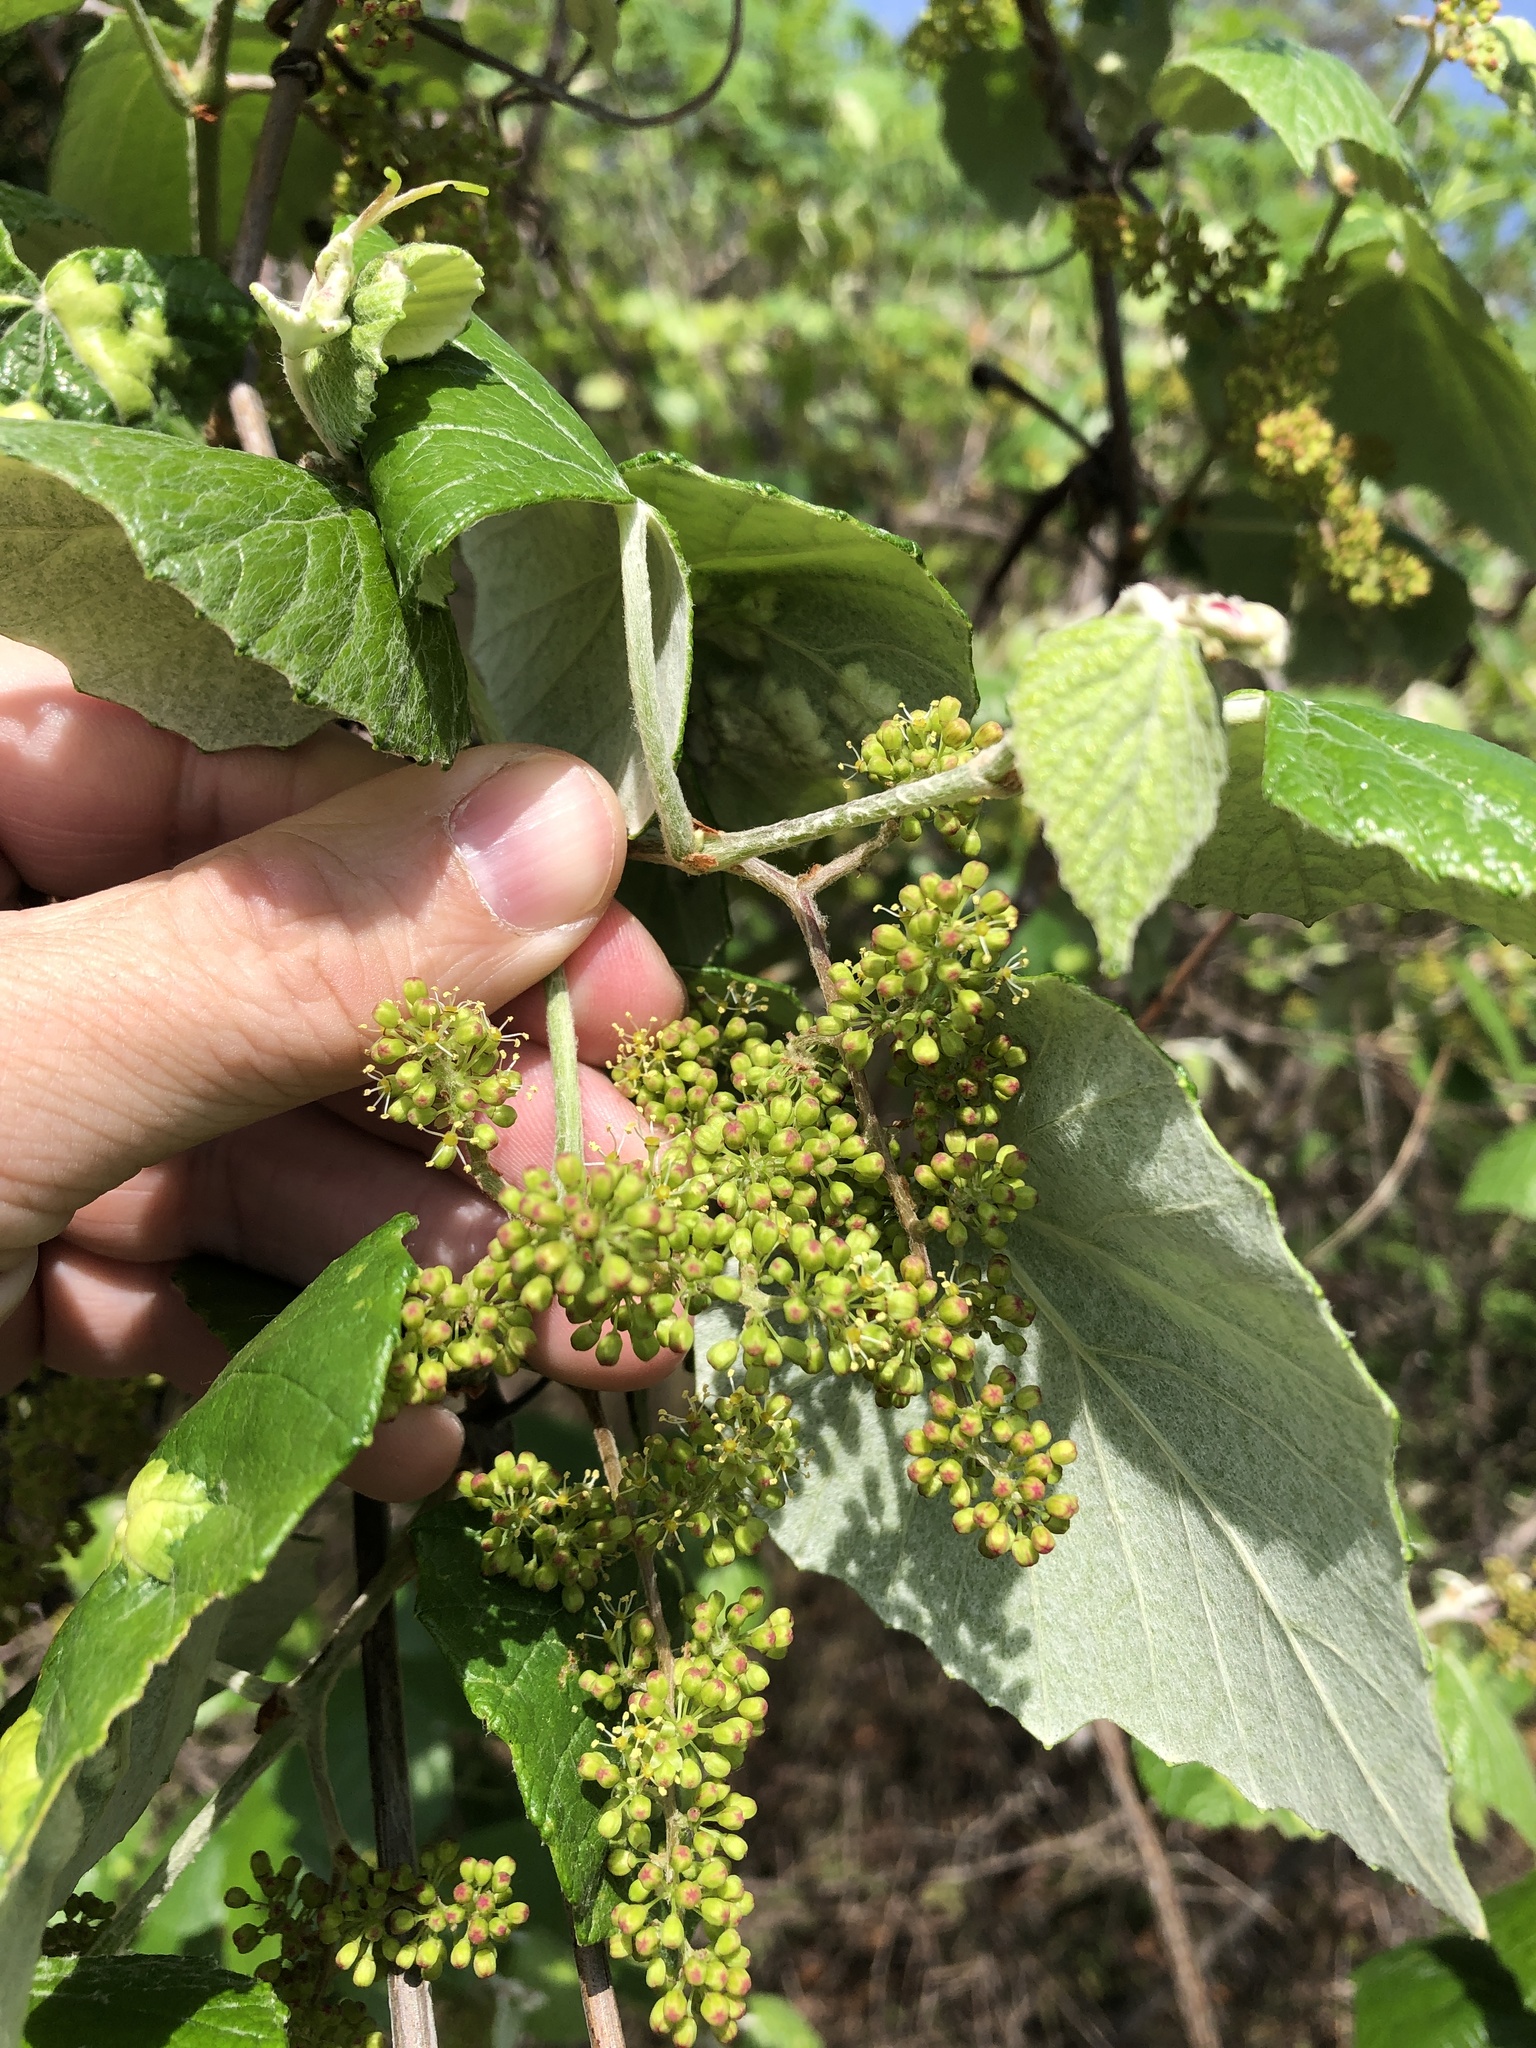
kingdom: Plantae
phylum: Tracheophyta
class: Magnoliopsida
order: Vitales
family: Vitaceae
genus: Vitis
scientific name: Vitis mustangensis
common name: Mustang grape
